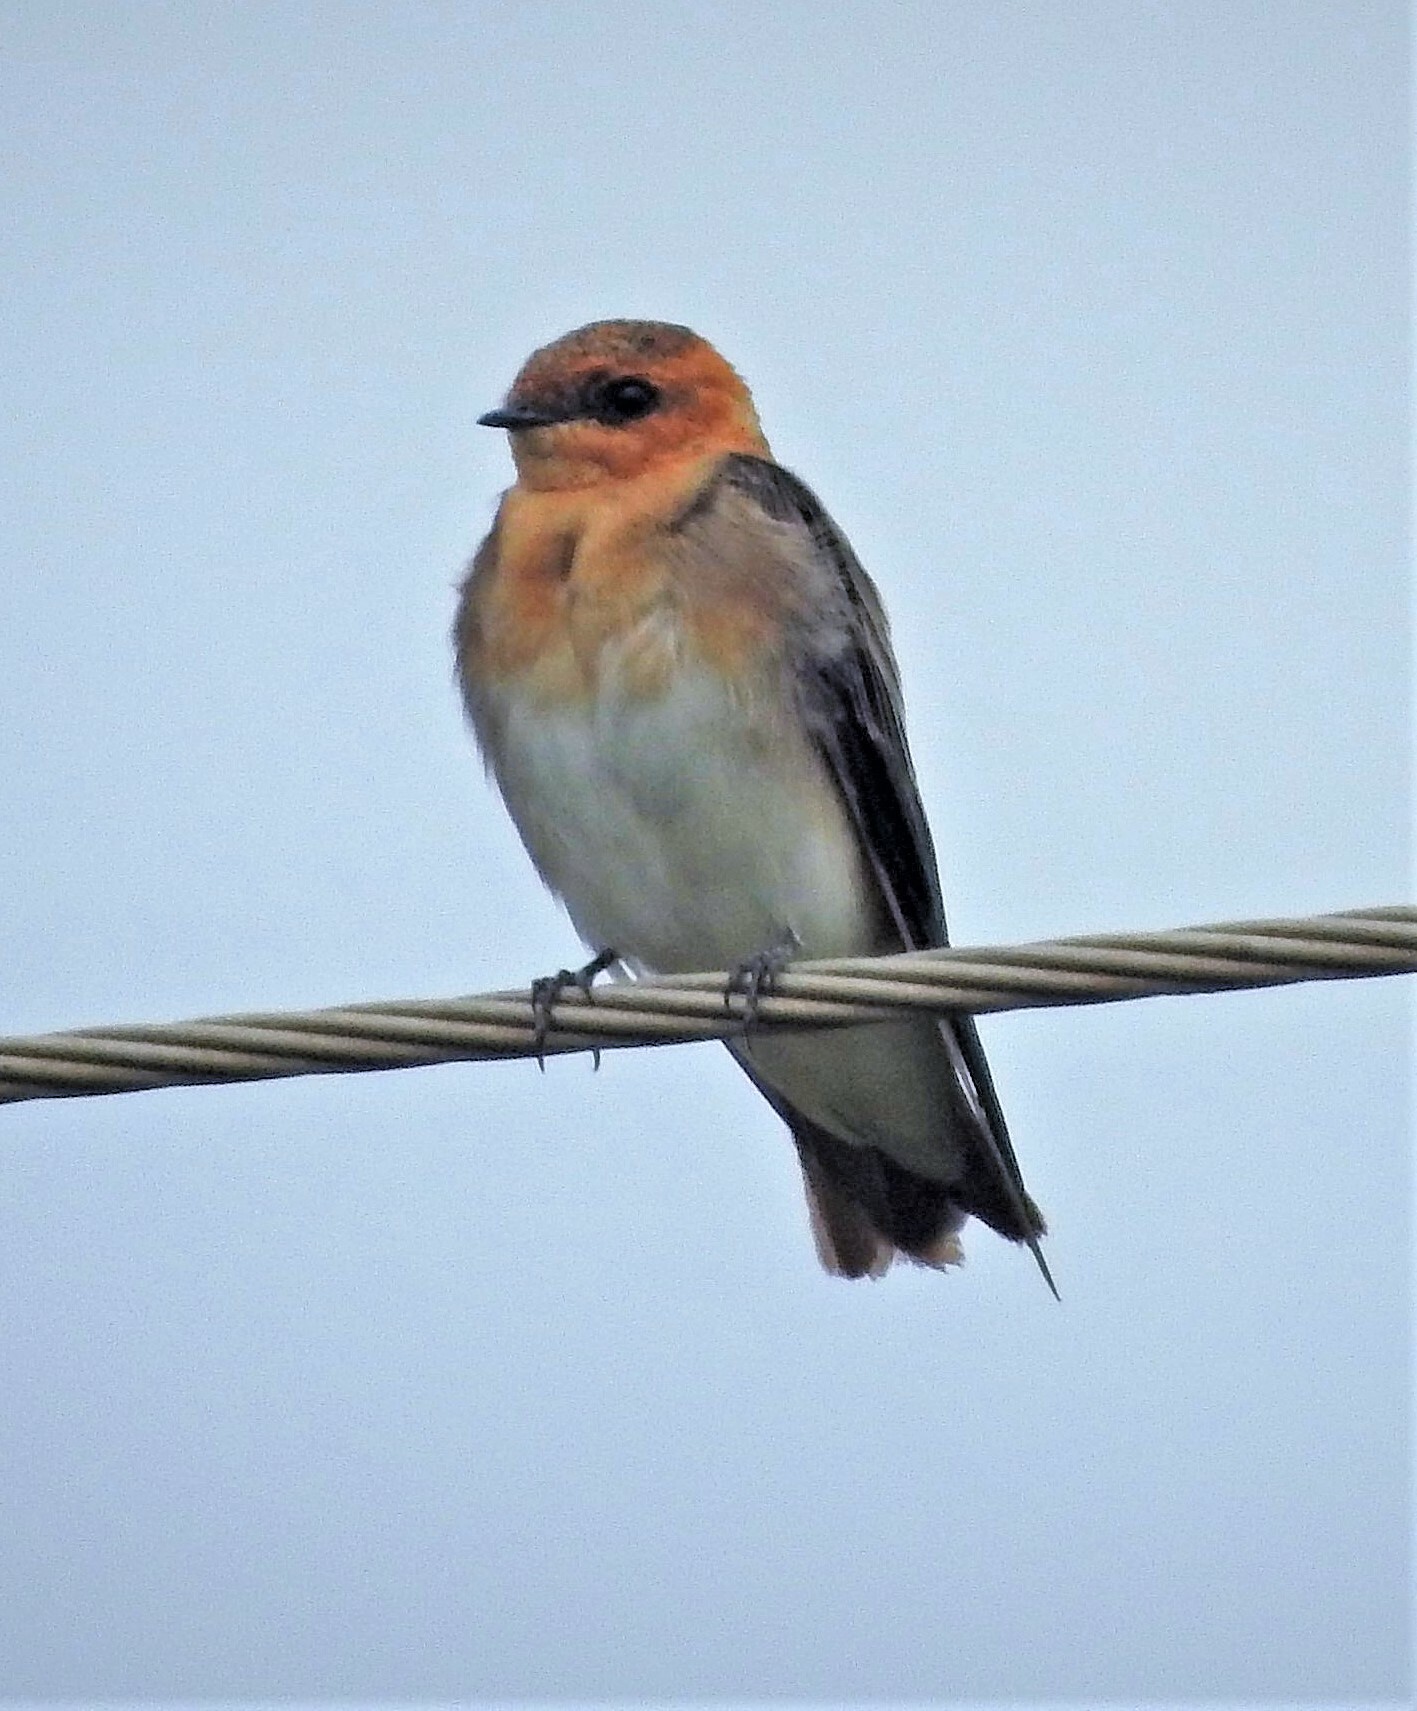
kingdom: Animalia
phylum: Chordata
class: Aves
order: Passeriformes
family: Hirundinidae
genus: Alopochelidon
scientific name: Alopochelidon fucata
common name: Tawny-headed swallow
